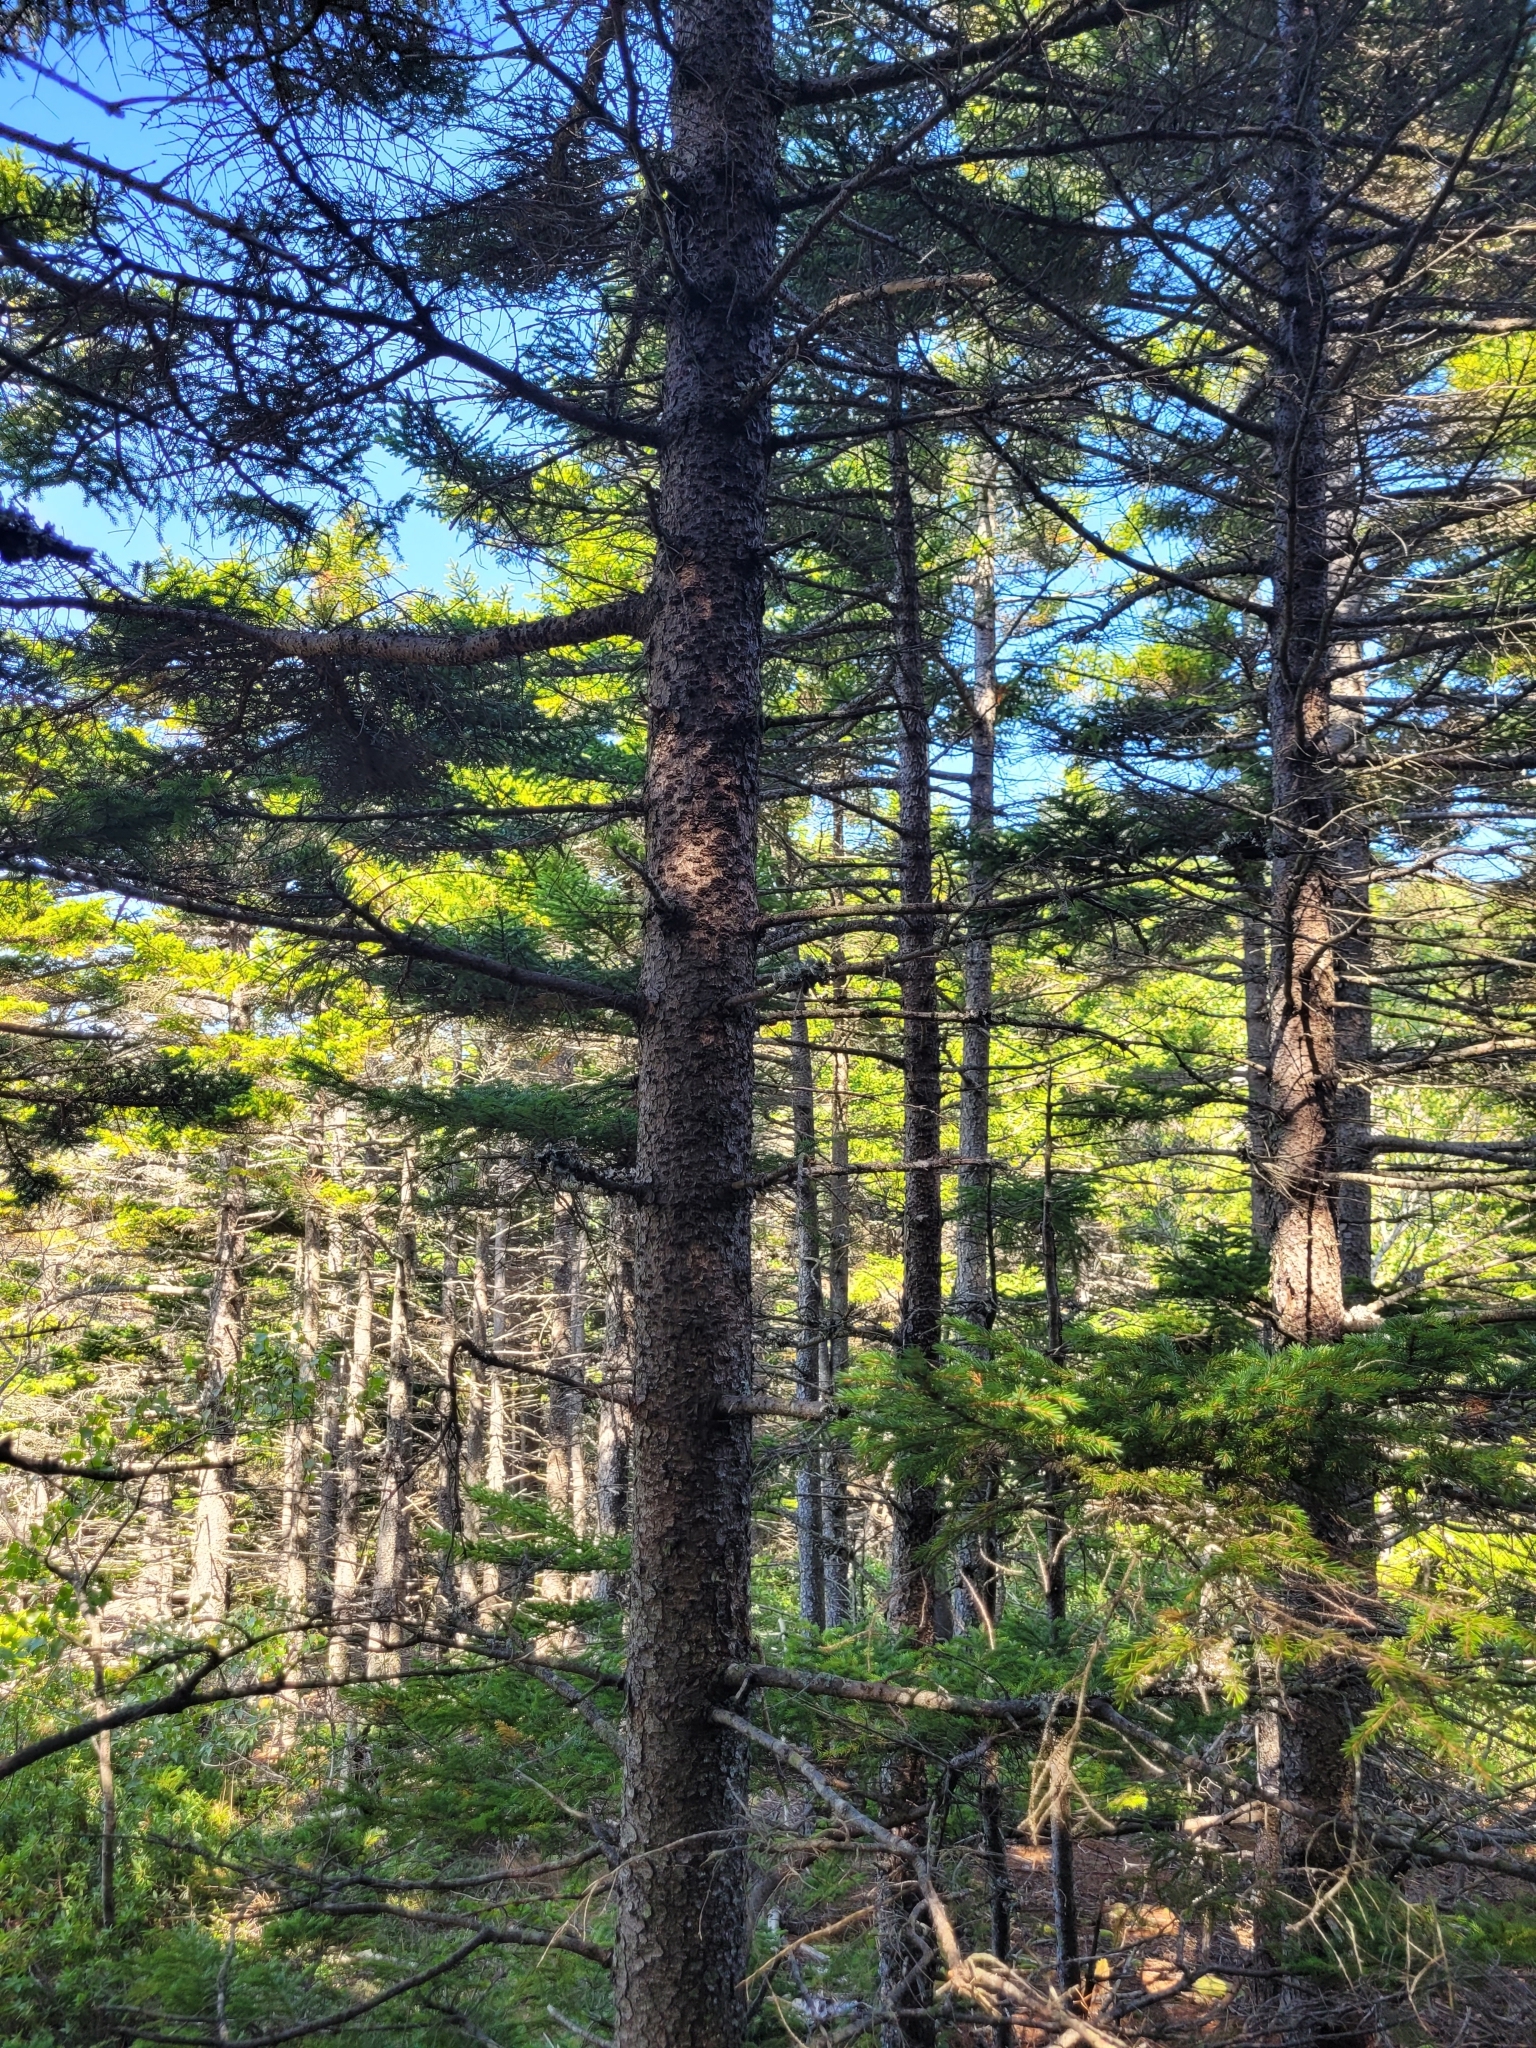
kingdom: Plantae
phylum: Tracheophyta
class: Pinopsida
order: Pinales
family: Pinaceae
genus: Tsuga
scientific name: Tsuga canadensis
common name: Eastern hemlock
